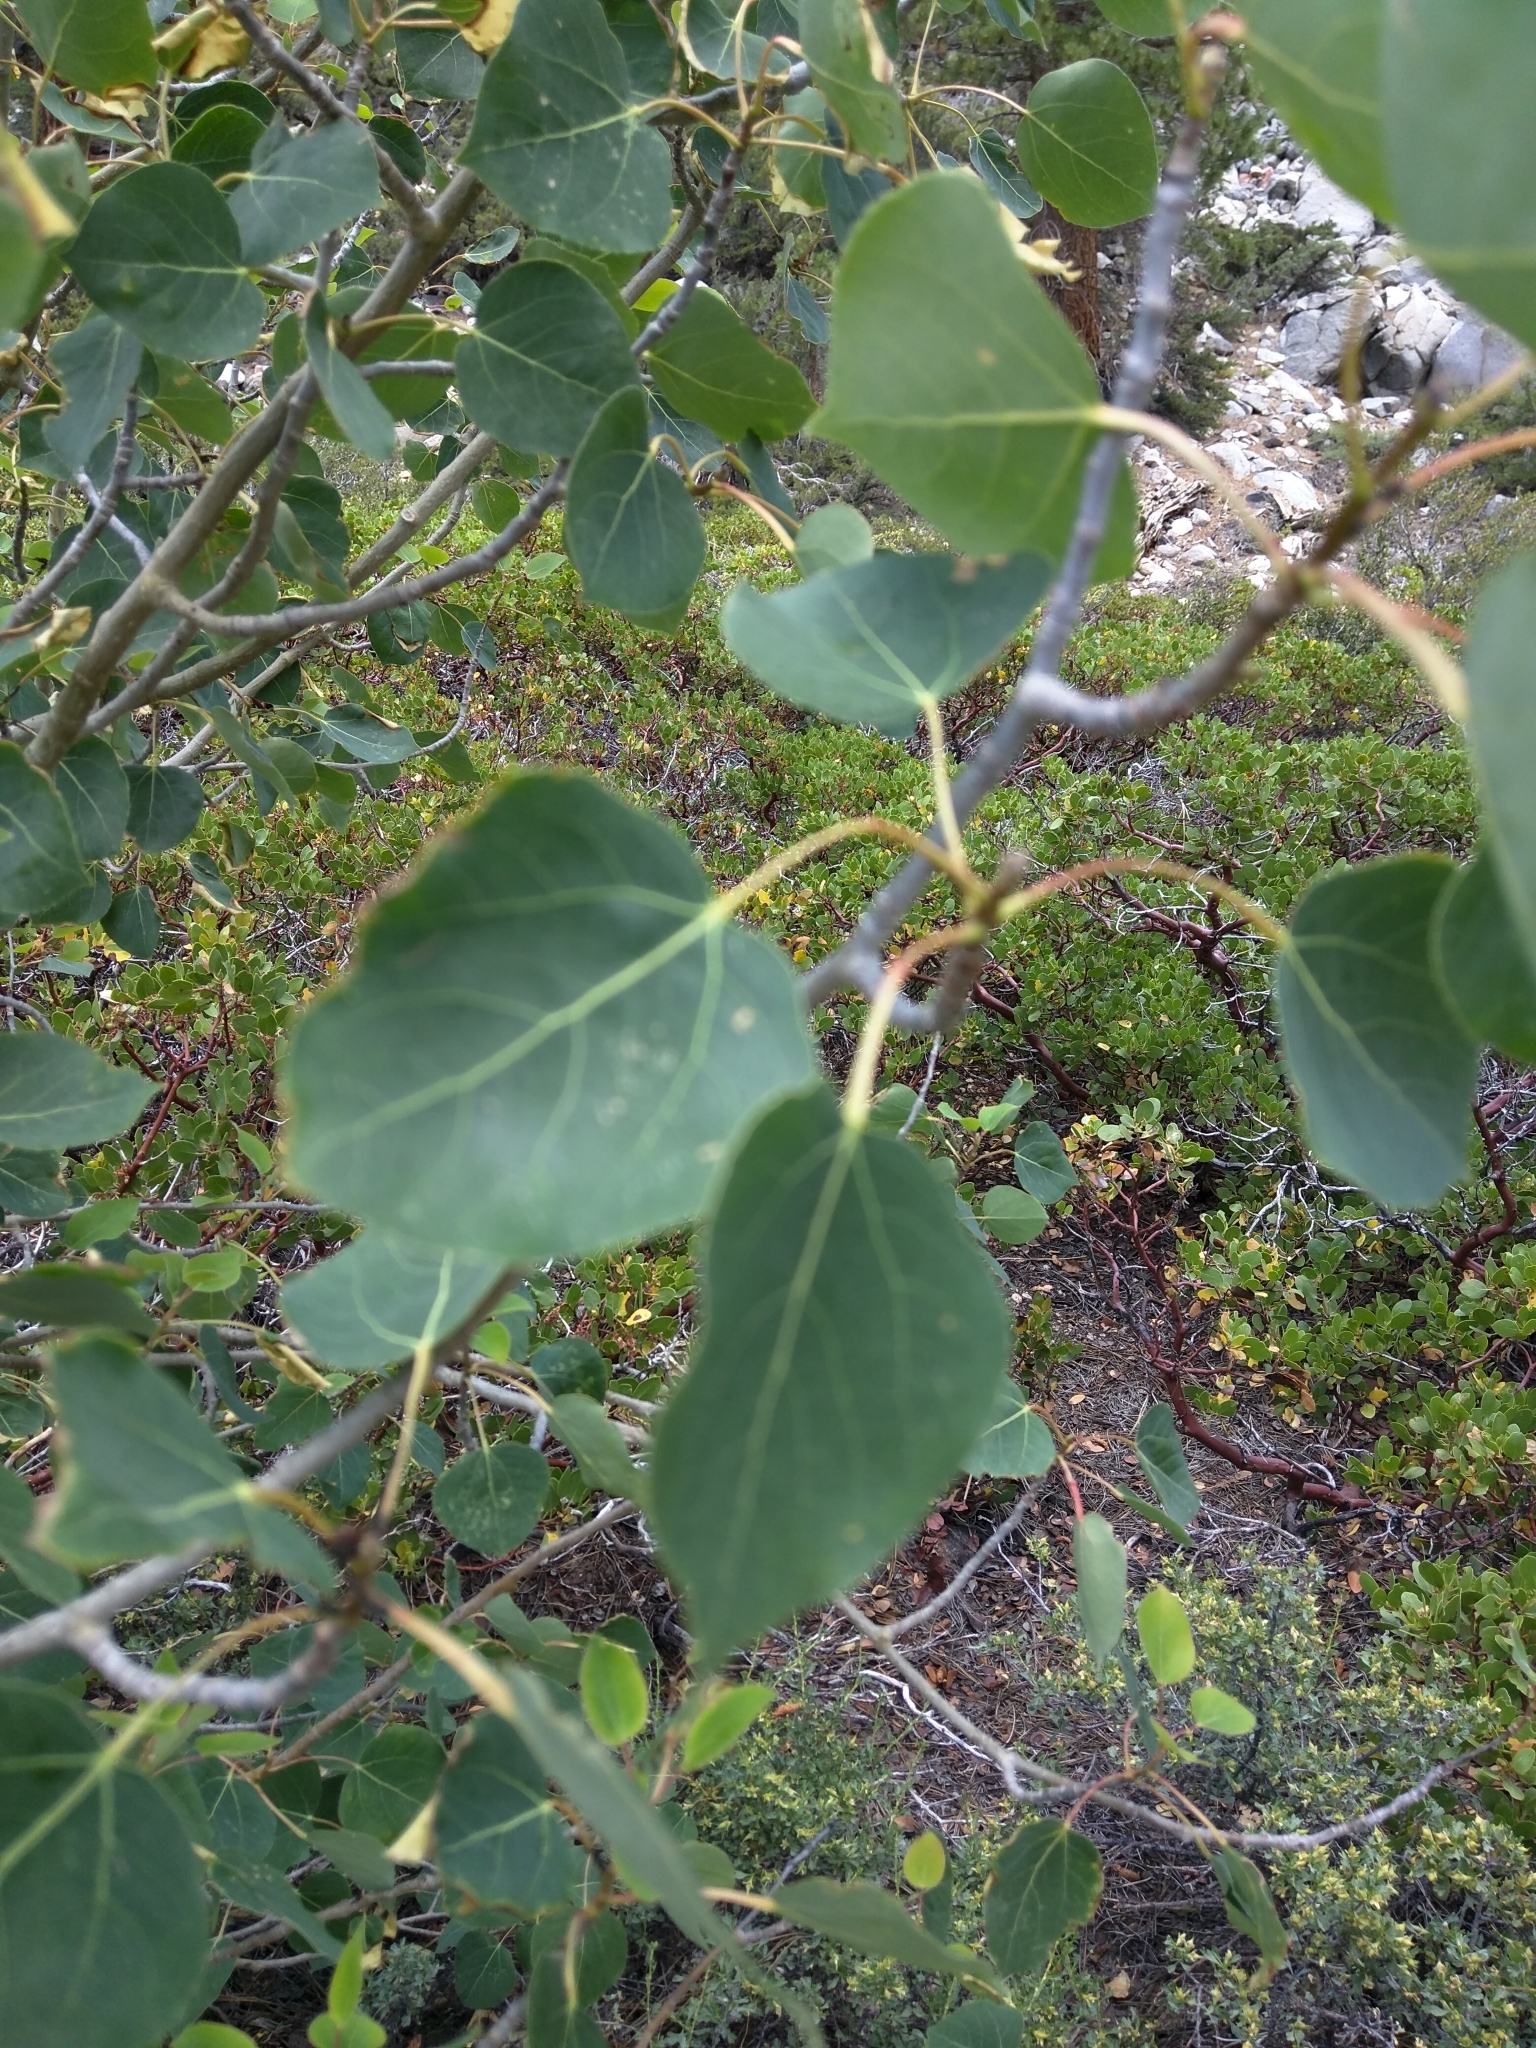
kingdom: Plantae
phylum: Tracheophyta
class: Magnoliopsida
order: Malpighiales
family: Salicaceae
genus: Populus
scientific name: Populus tremuloides
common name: Quaking aspen
